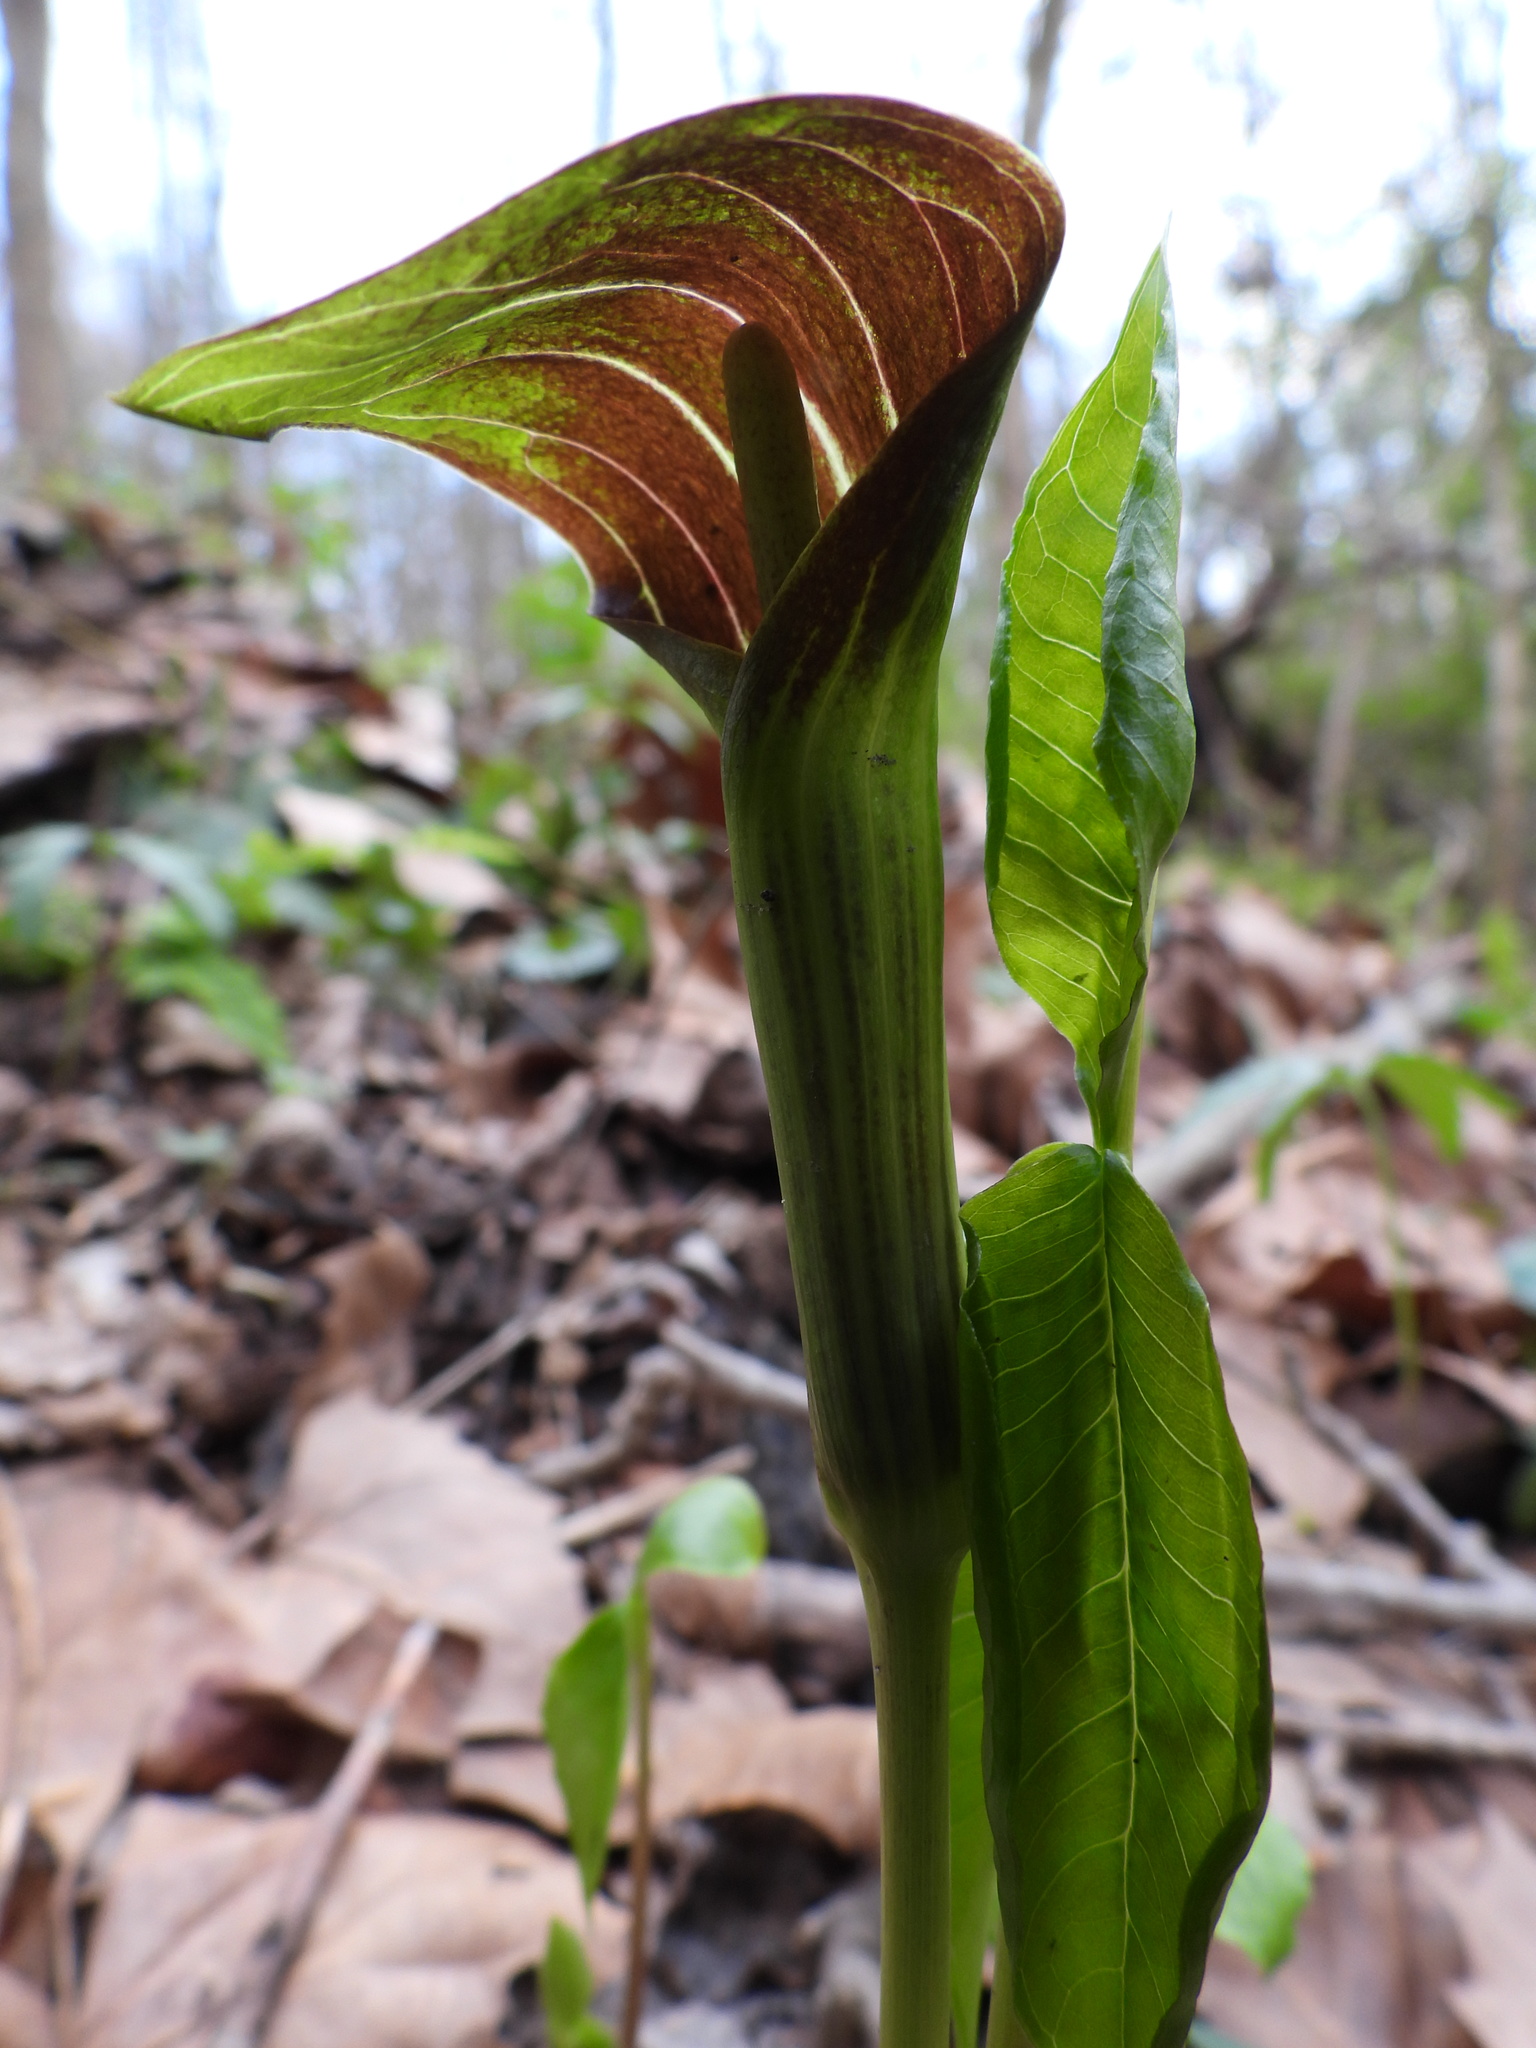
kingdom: Plantae
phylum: Tracheophyta
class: Liliopsida
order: Alismatales
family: Araceae
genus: Arisaema
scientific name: Arisaema triphyllum
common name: Jack-in-the-pulpit
